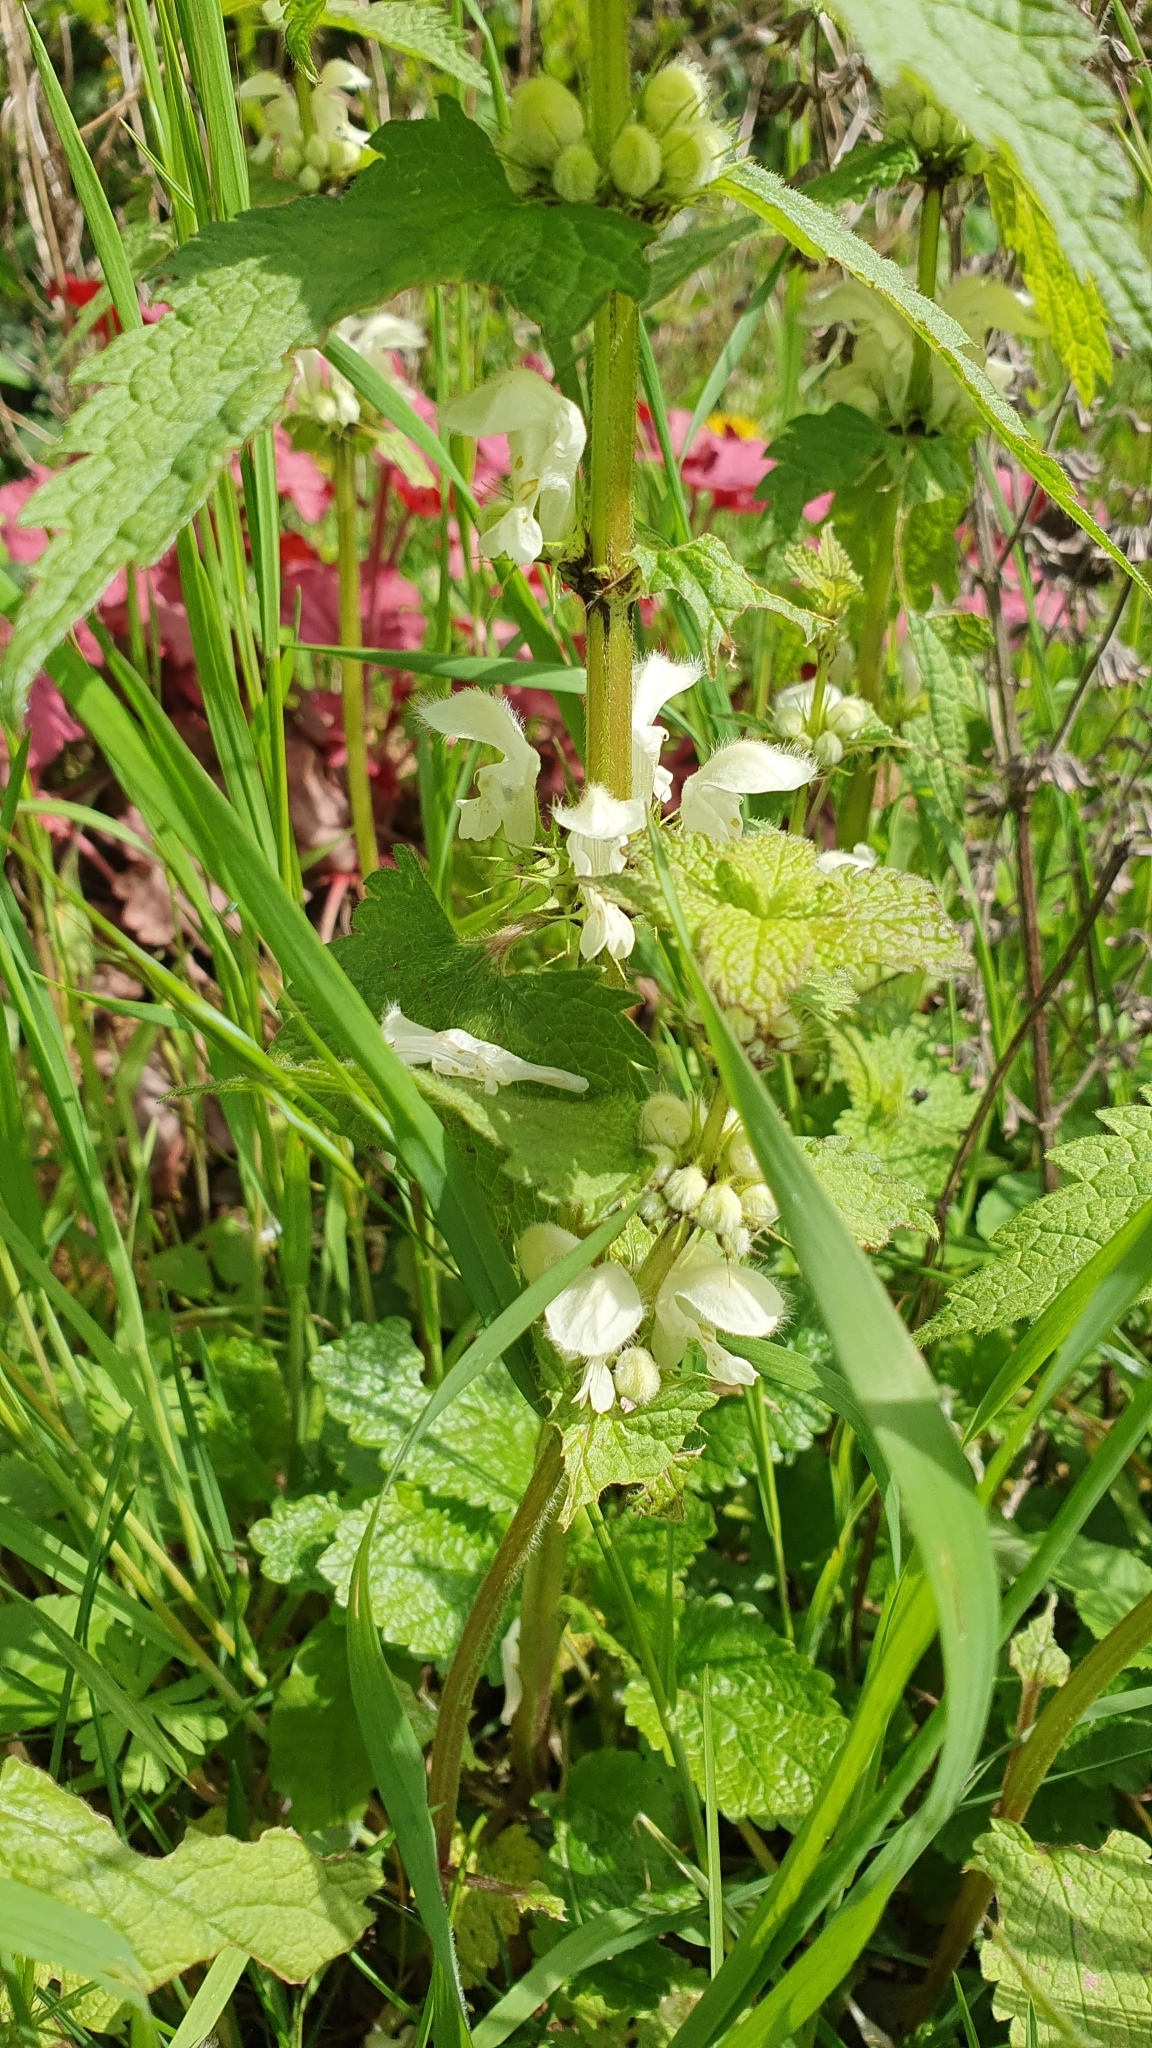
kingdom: Plantae
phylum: Tracheophyta
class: Magnoliopsida
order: Lamiales
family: Lamiaceae
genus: Lamium
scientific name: Lamium album
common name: White dead-nettle
